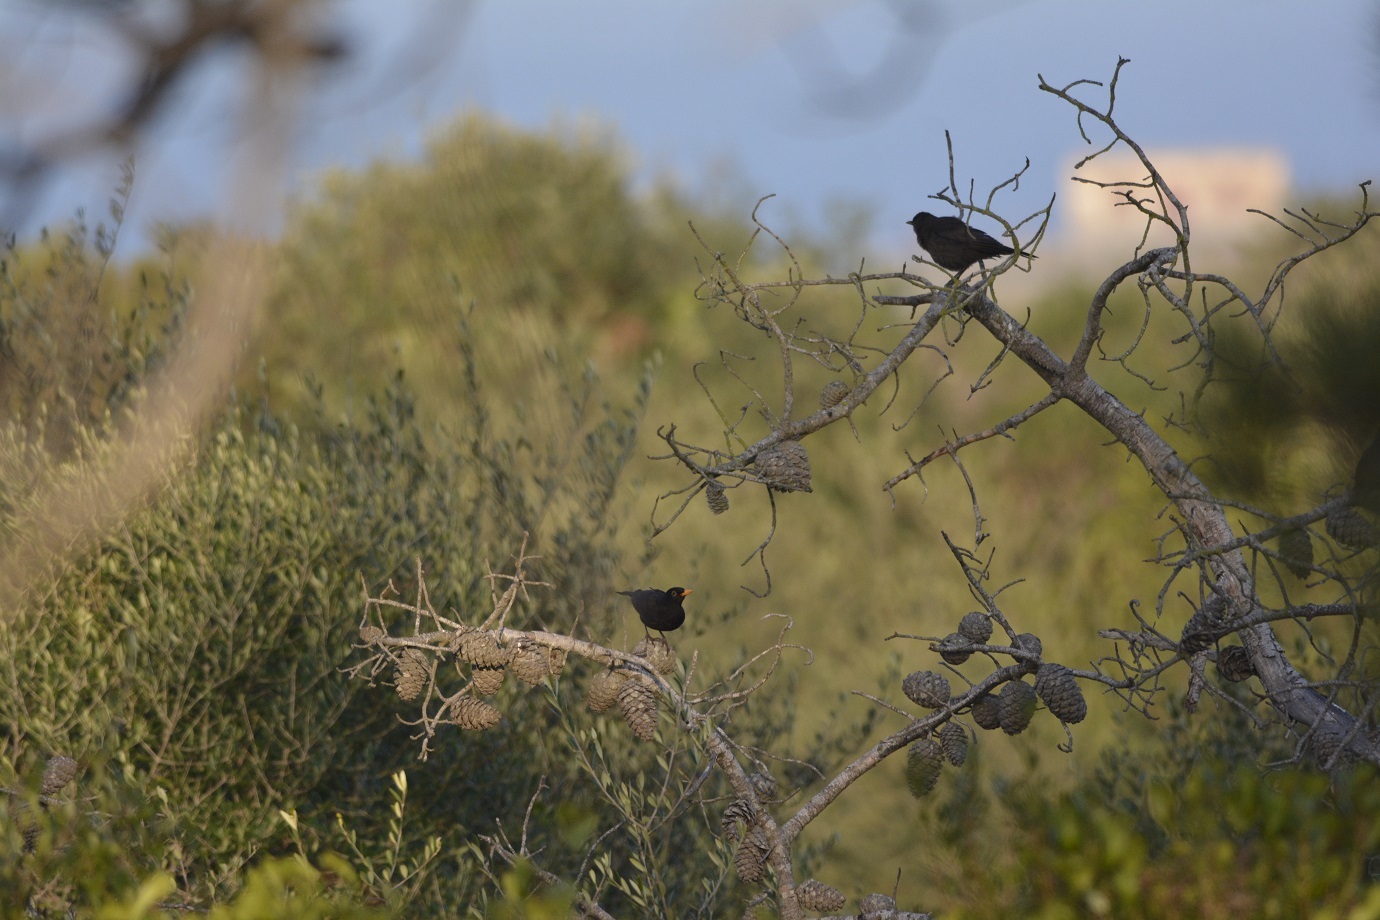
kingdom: Animalia
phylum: Chordata
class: Aves
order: Passeriformes
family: Turdidae
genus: Turdus
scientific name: Turdus merula
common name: Common blackbird
